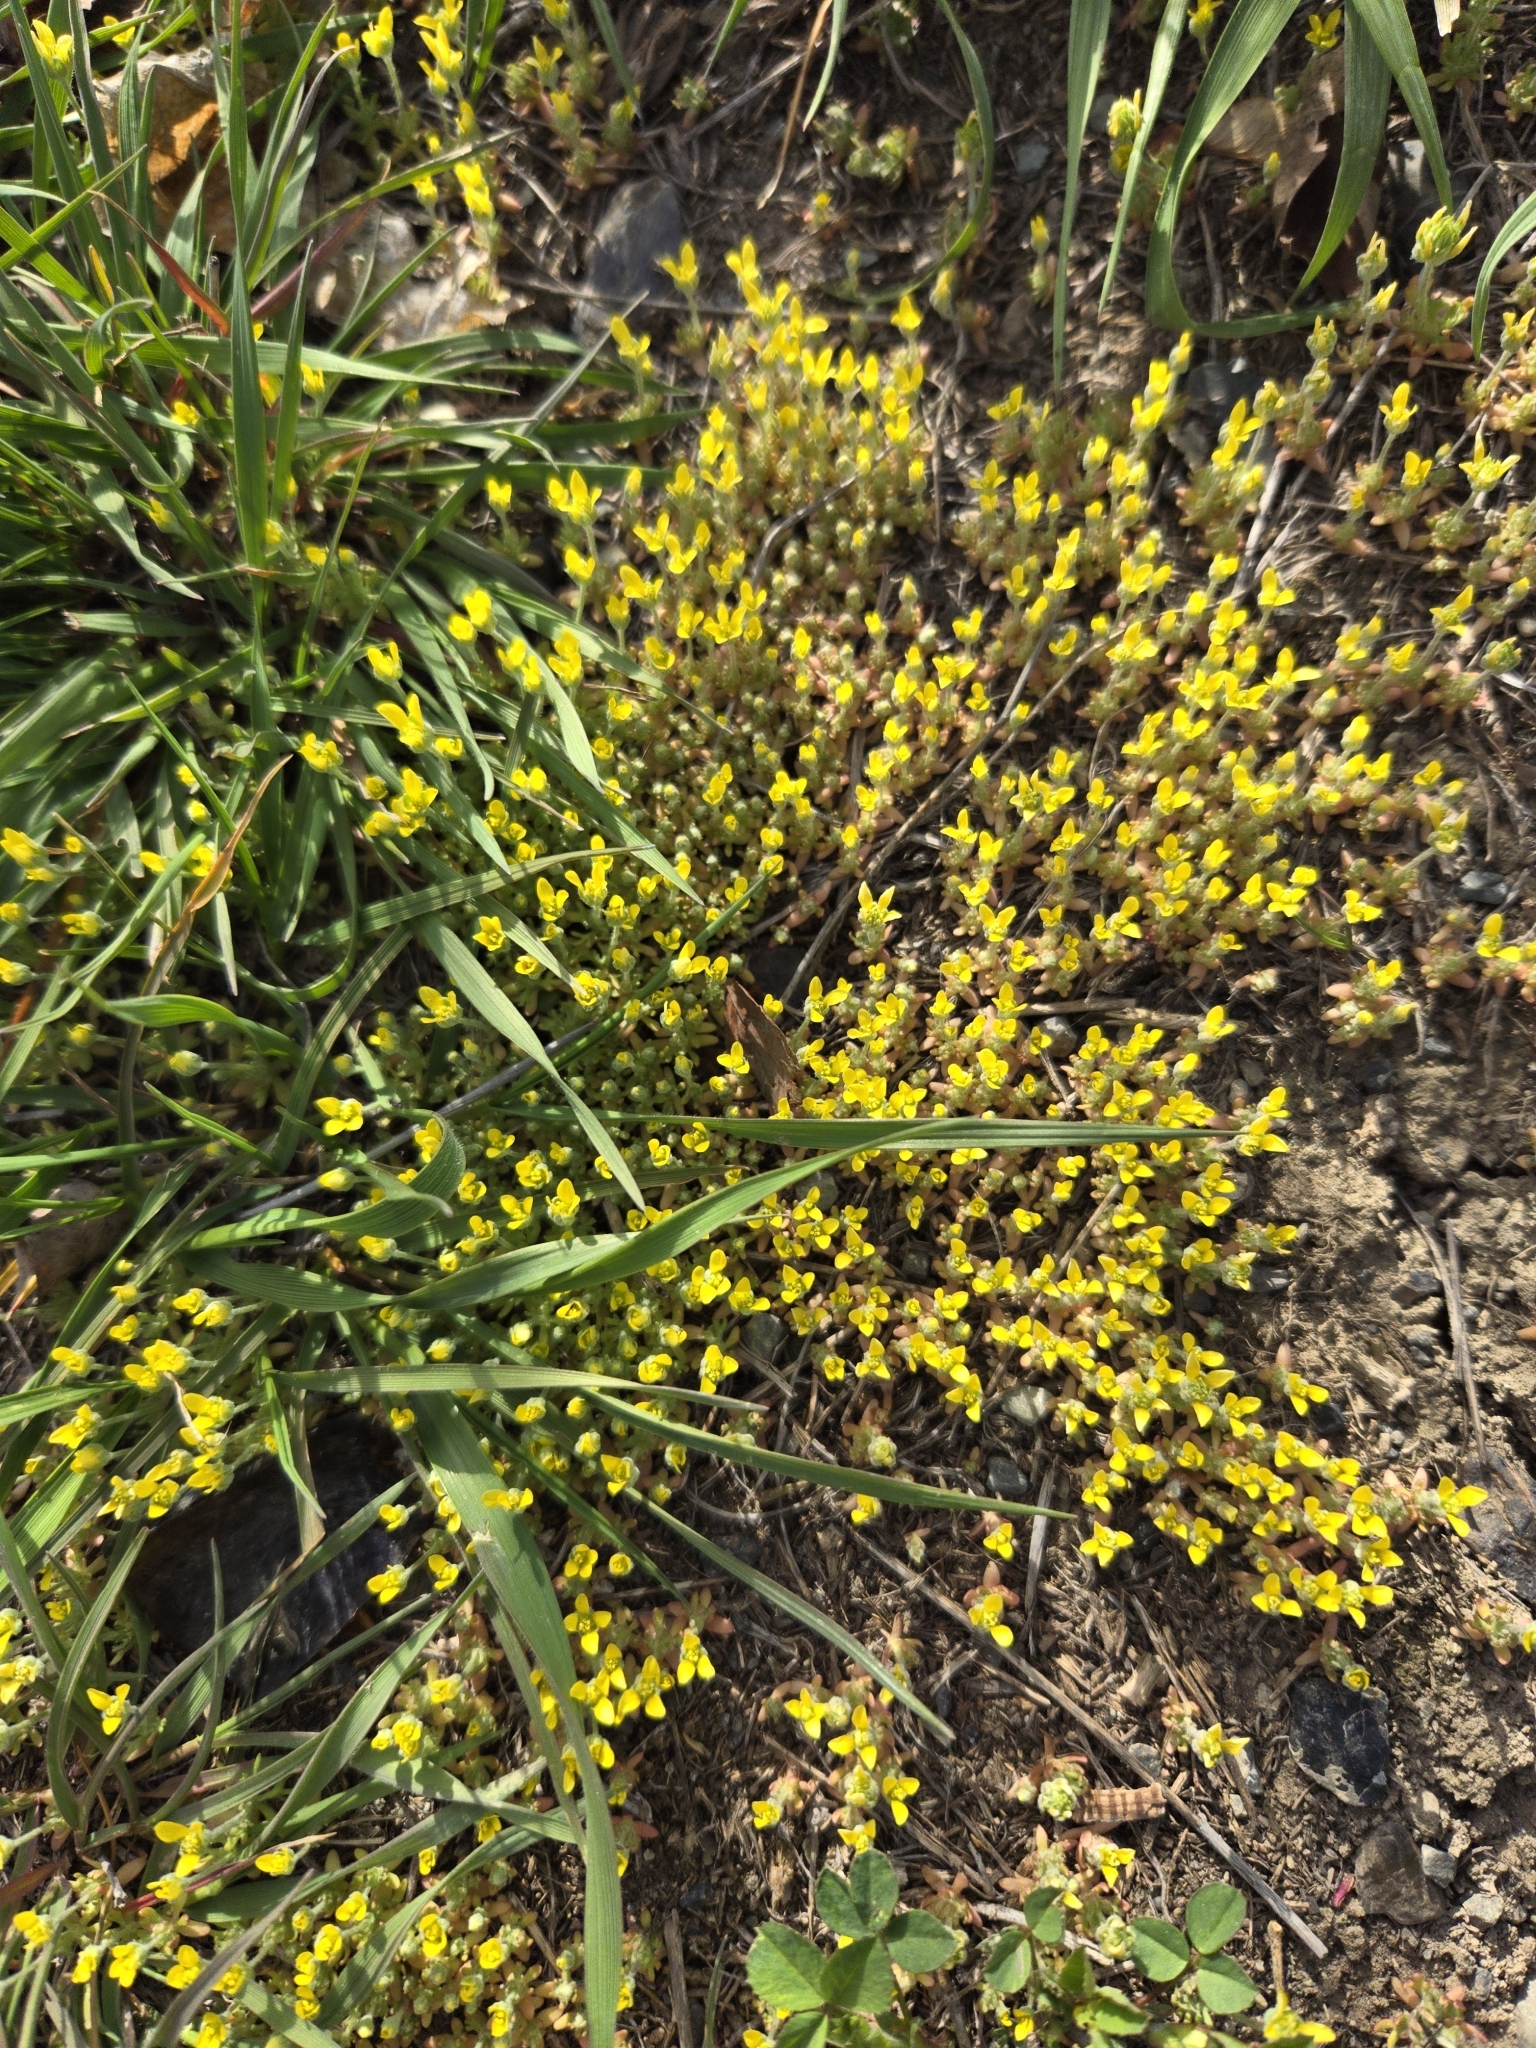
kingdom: Plantae
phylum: Tracheophyta
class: Magnoliopsida
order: Ranunculales
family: Ranunculaceae
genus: Ceratocephala
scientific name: Ceratocephala orthoceras
